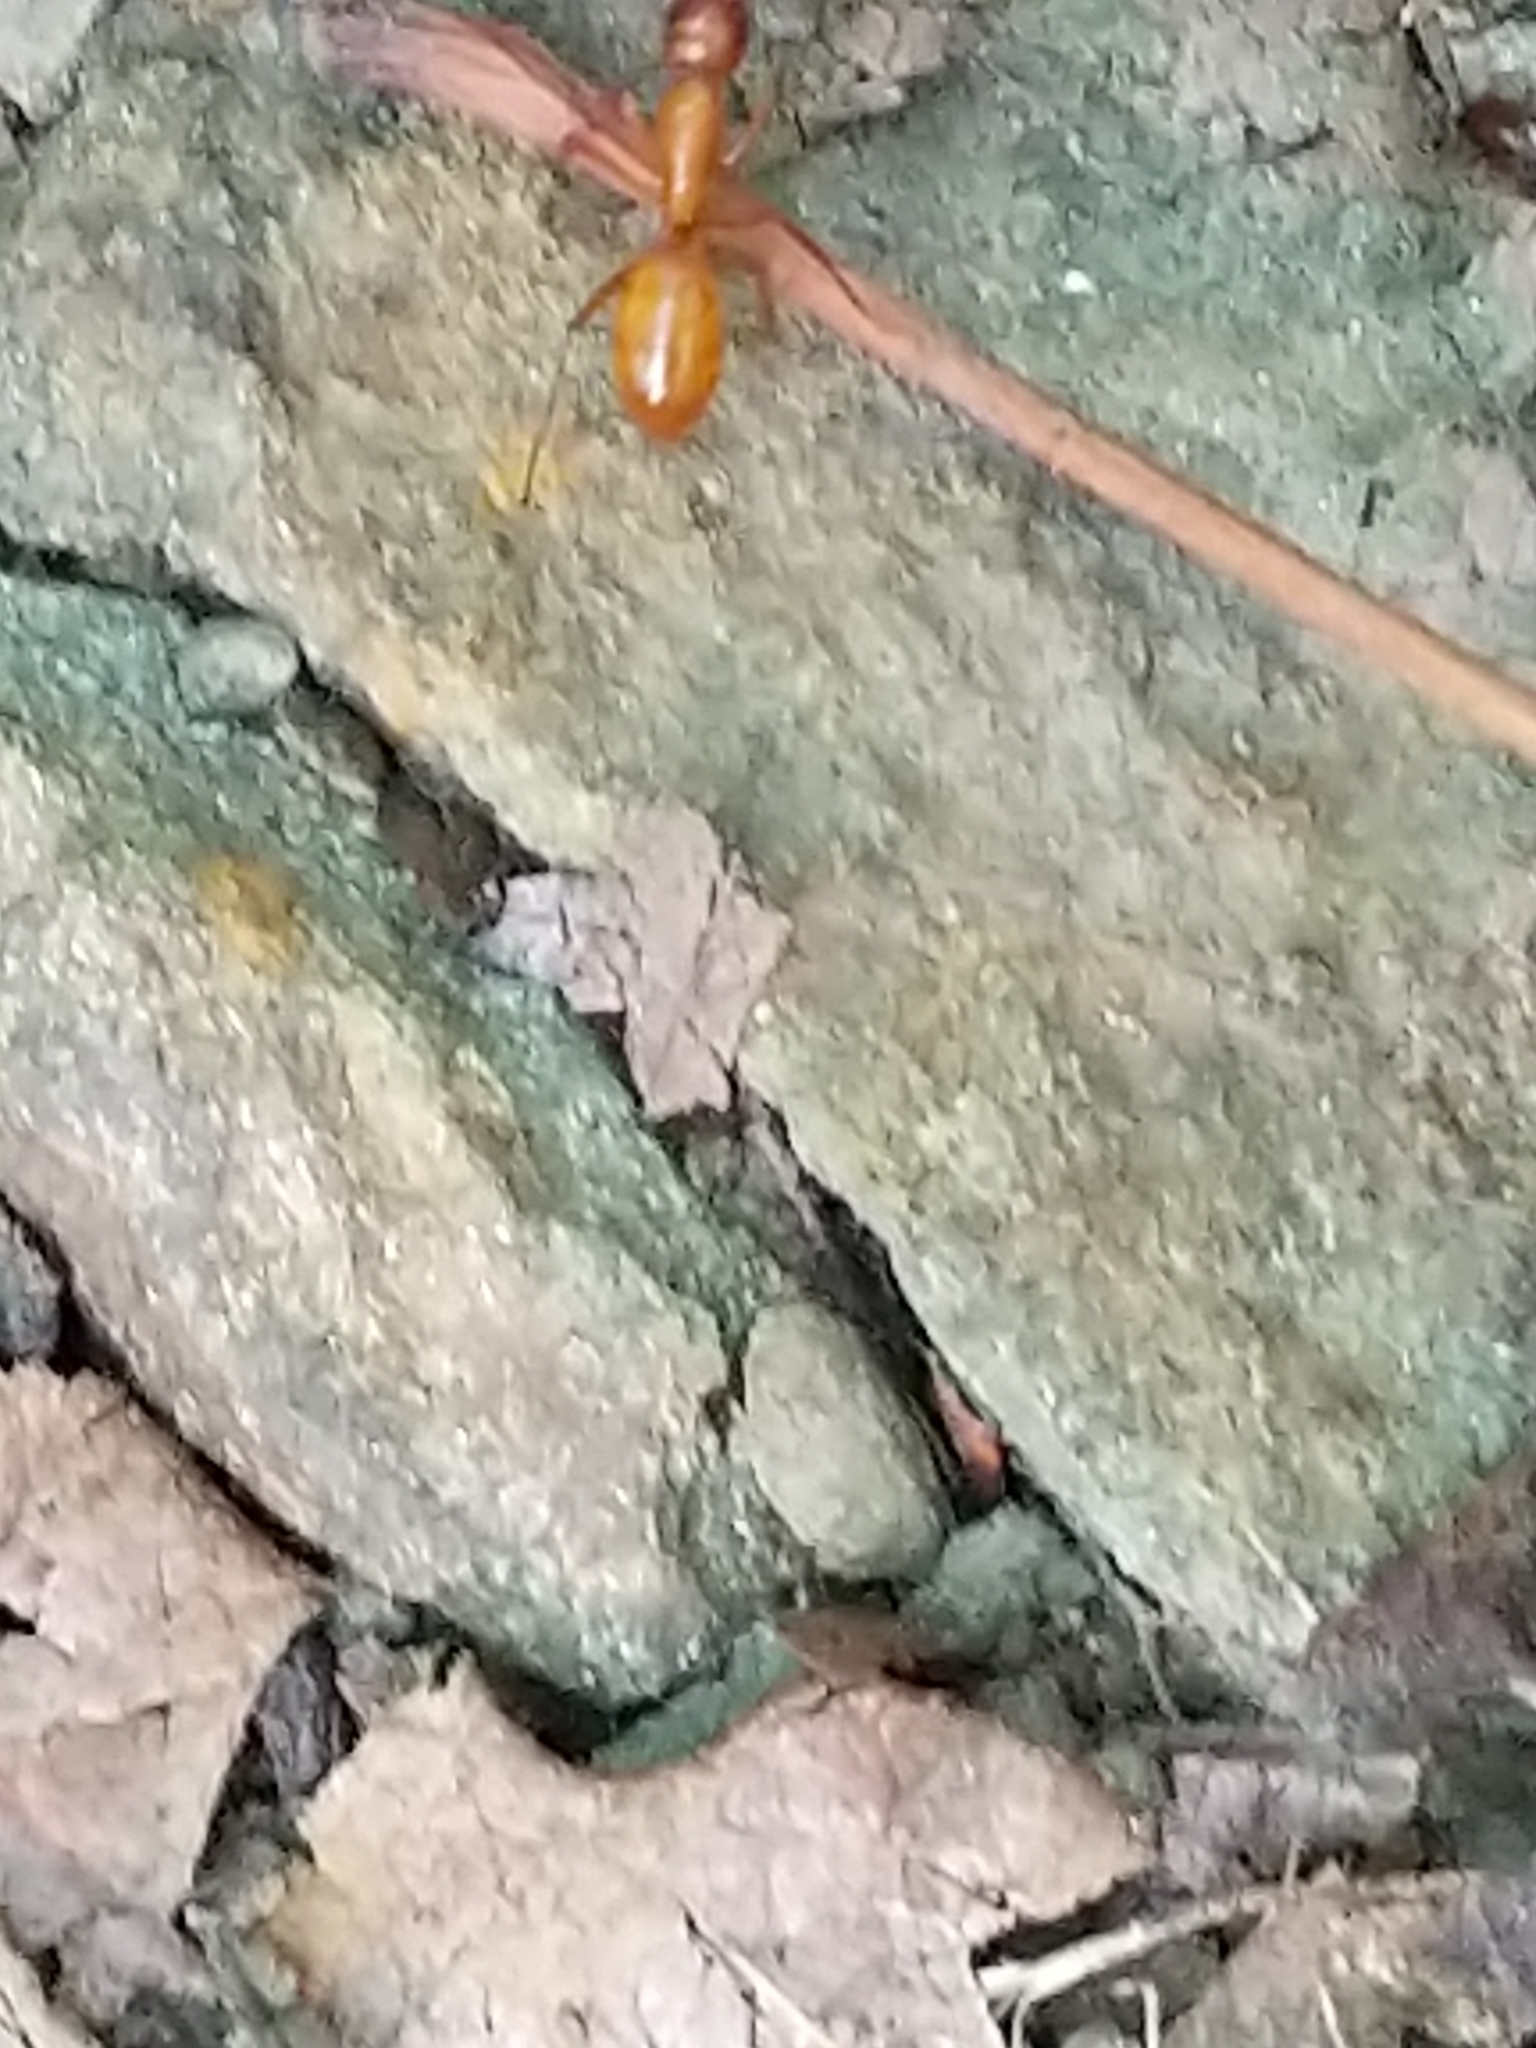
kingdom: Animalia
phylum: Arthropoda
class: Insecta
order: Hymenoptera
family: Formicidae
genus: Camponotus
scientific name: Camponotus castaneus
